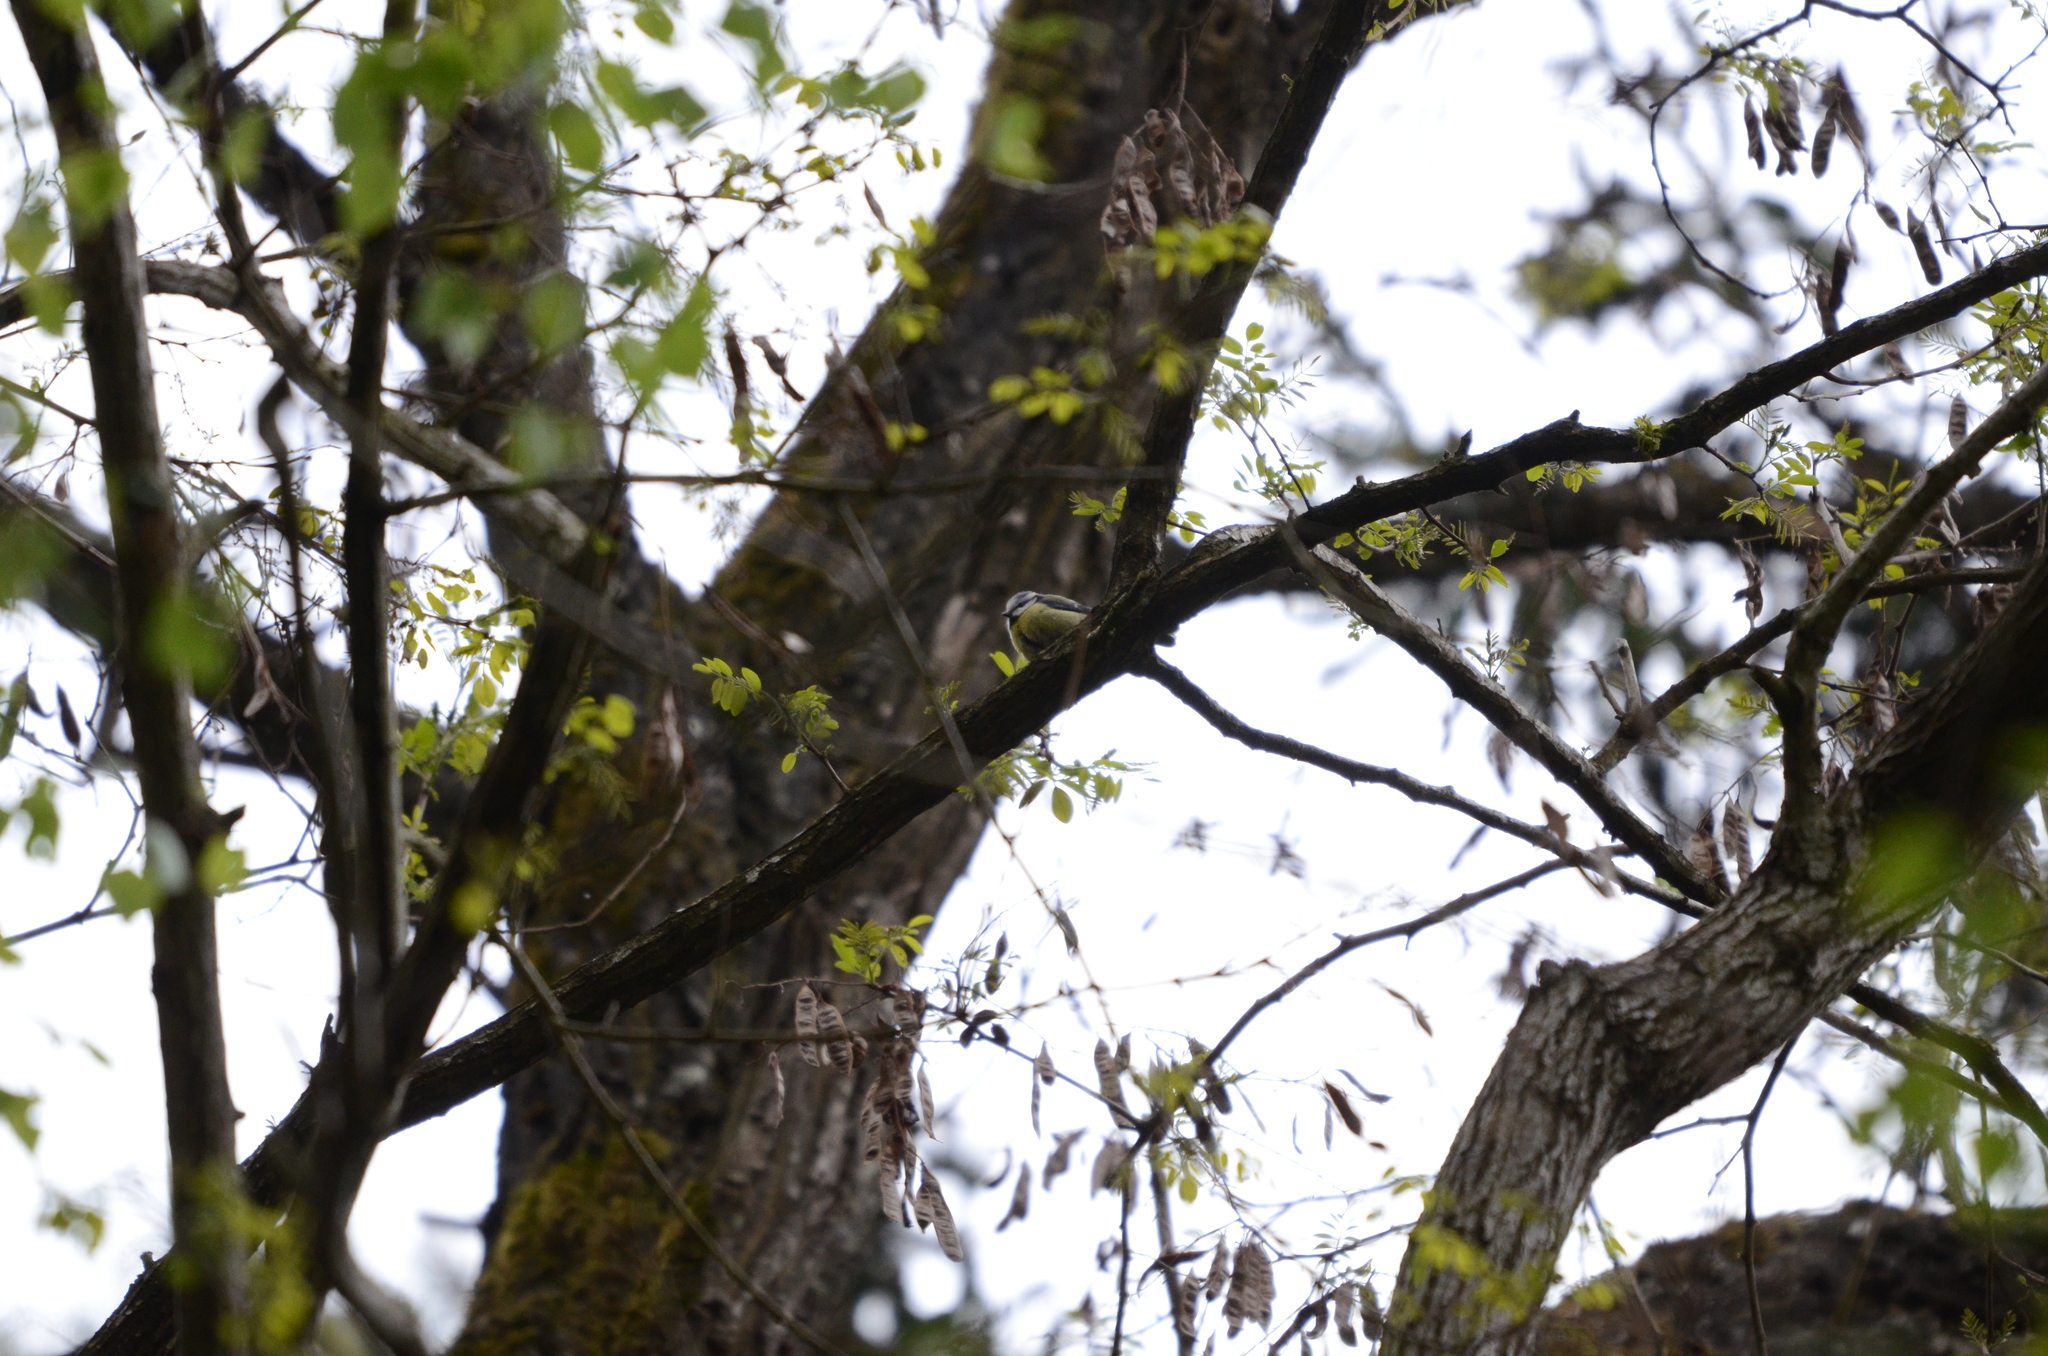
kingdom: Animalia
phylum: Chordata
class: Aves
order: Passeriformes
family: Paridae
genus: Cyanistes
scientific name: Cyanistes caeruleus
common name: Eurasian blue tit
